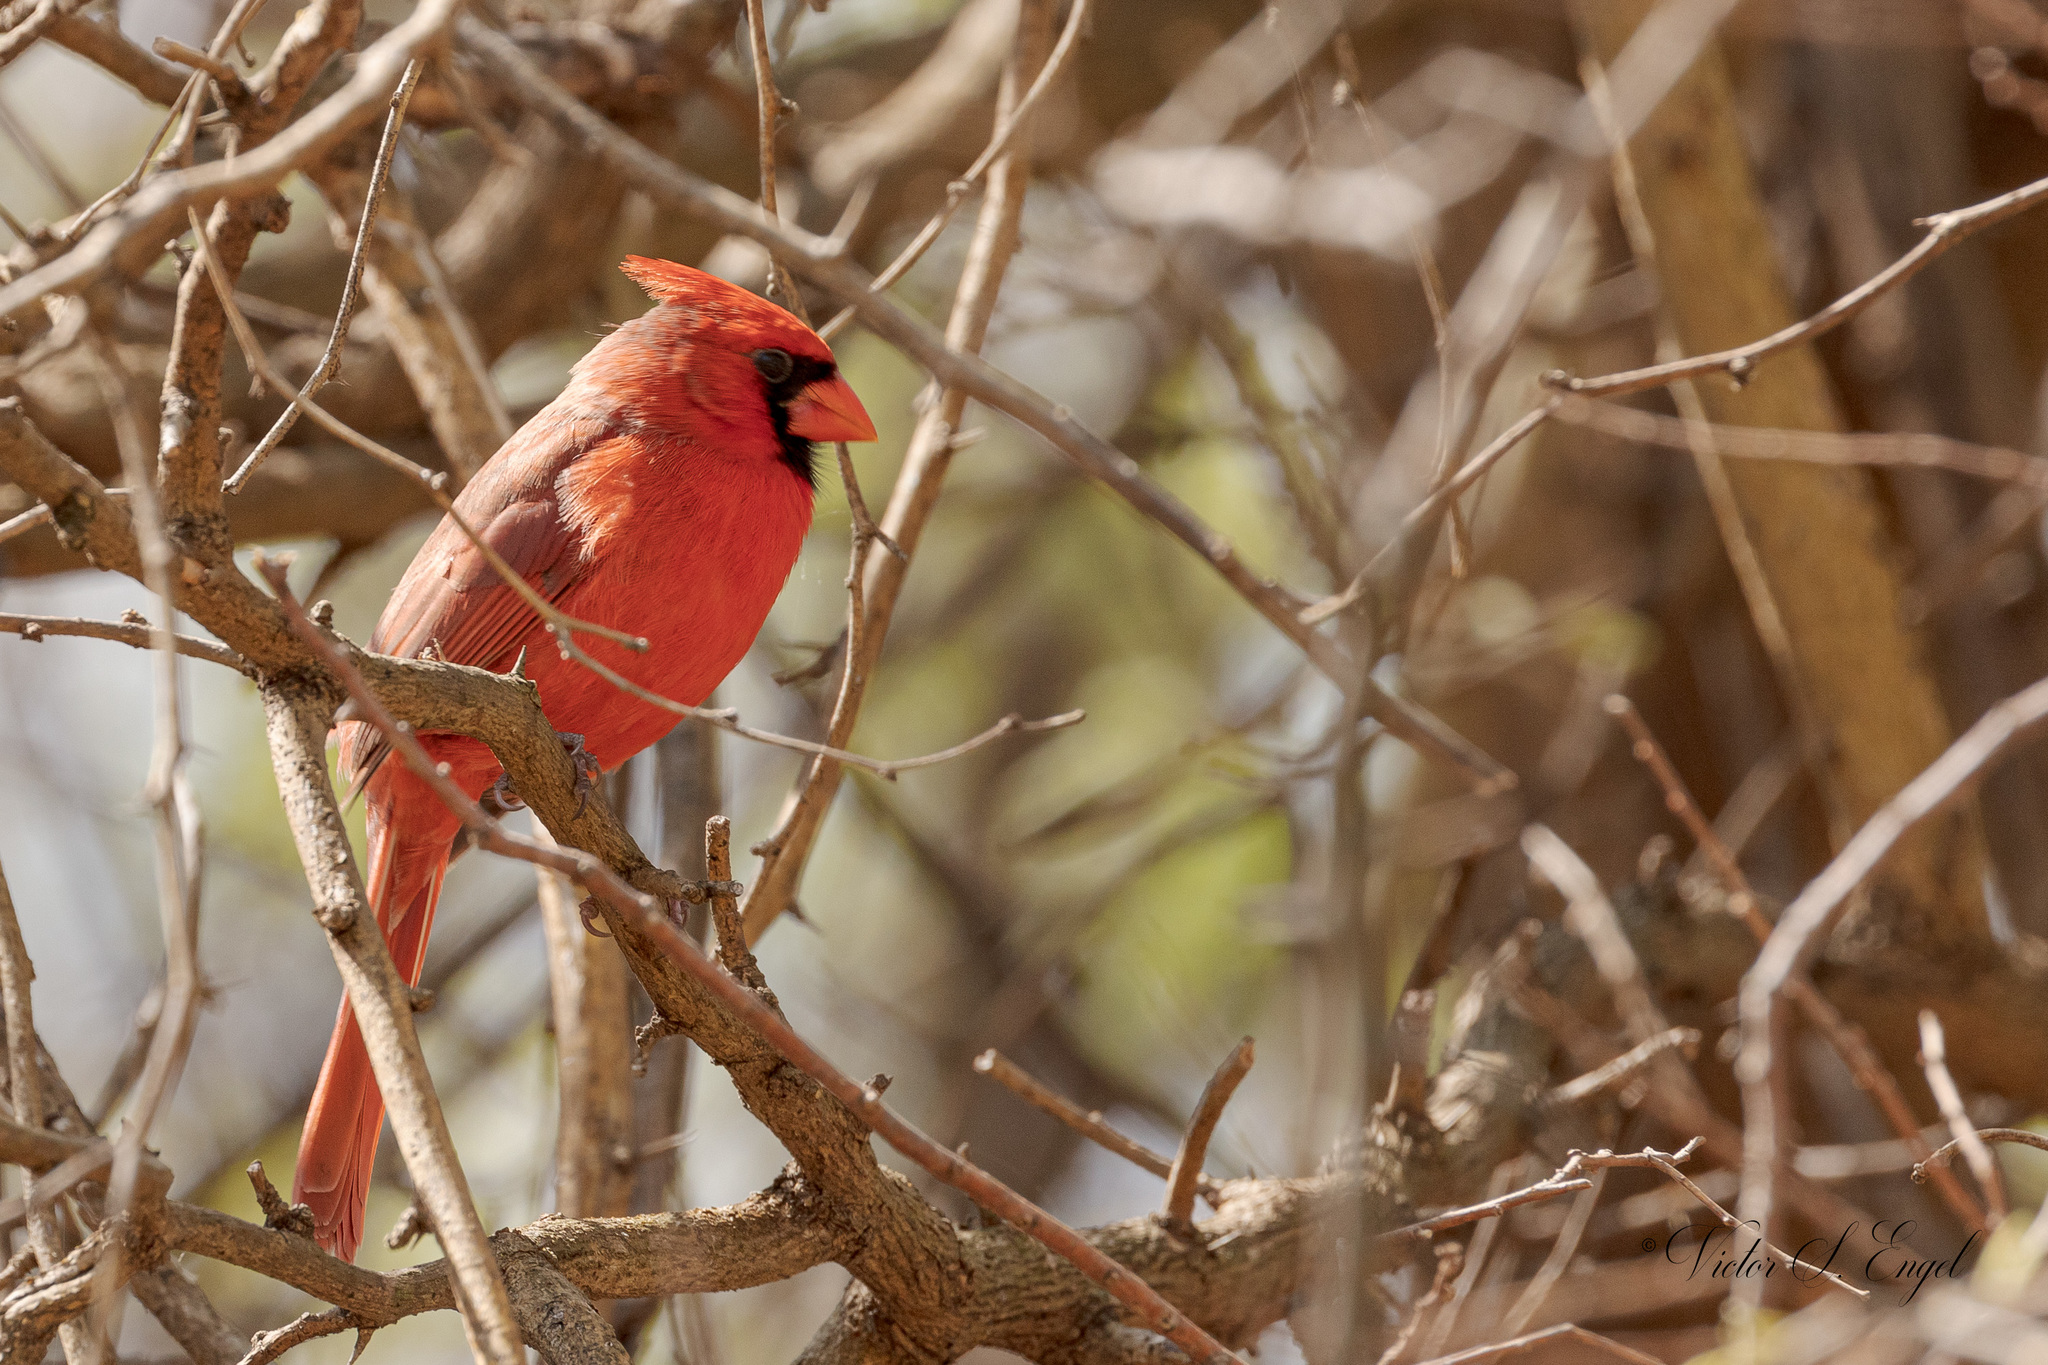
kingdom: Animalia
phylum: Chordata
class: Aves
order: Passeriformes
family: Cardinalidae
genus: Cardinalis
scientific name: Cardinalis cardinalis
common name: Northern cardinal
